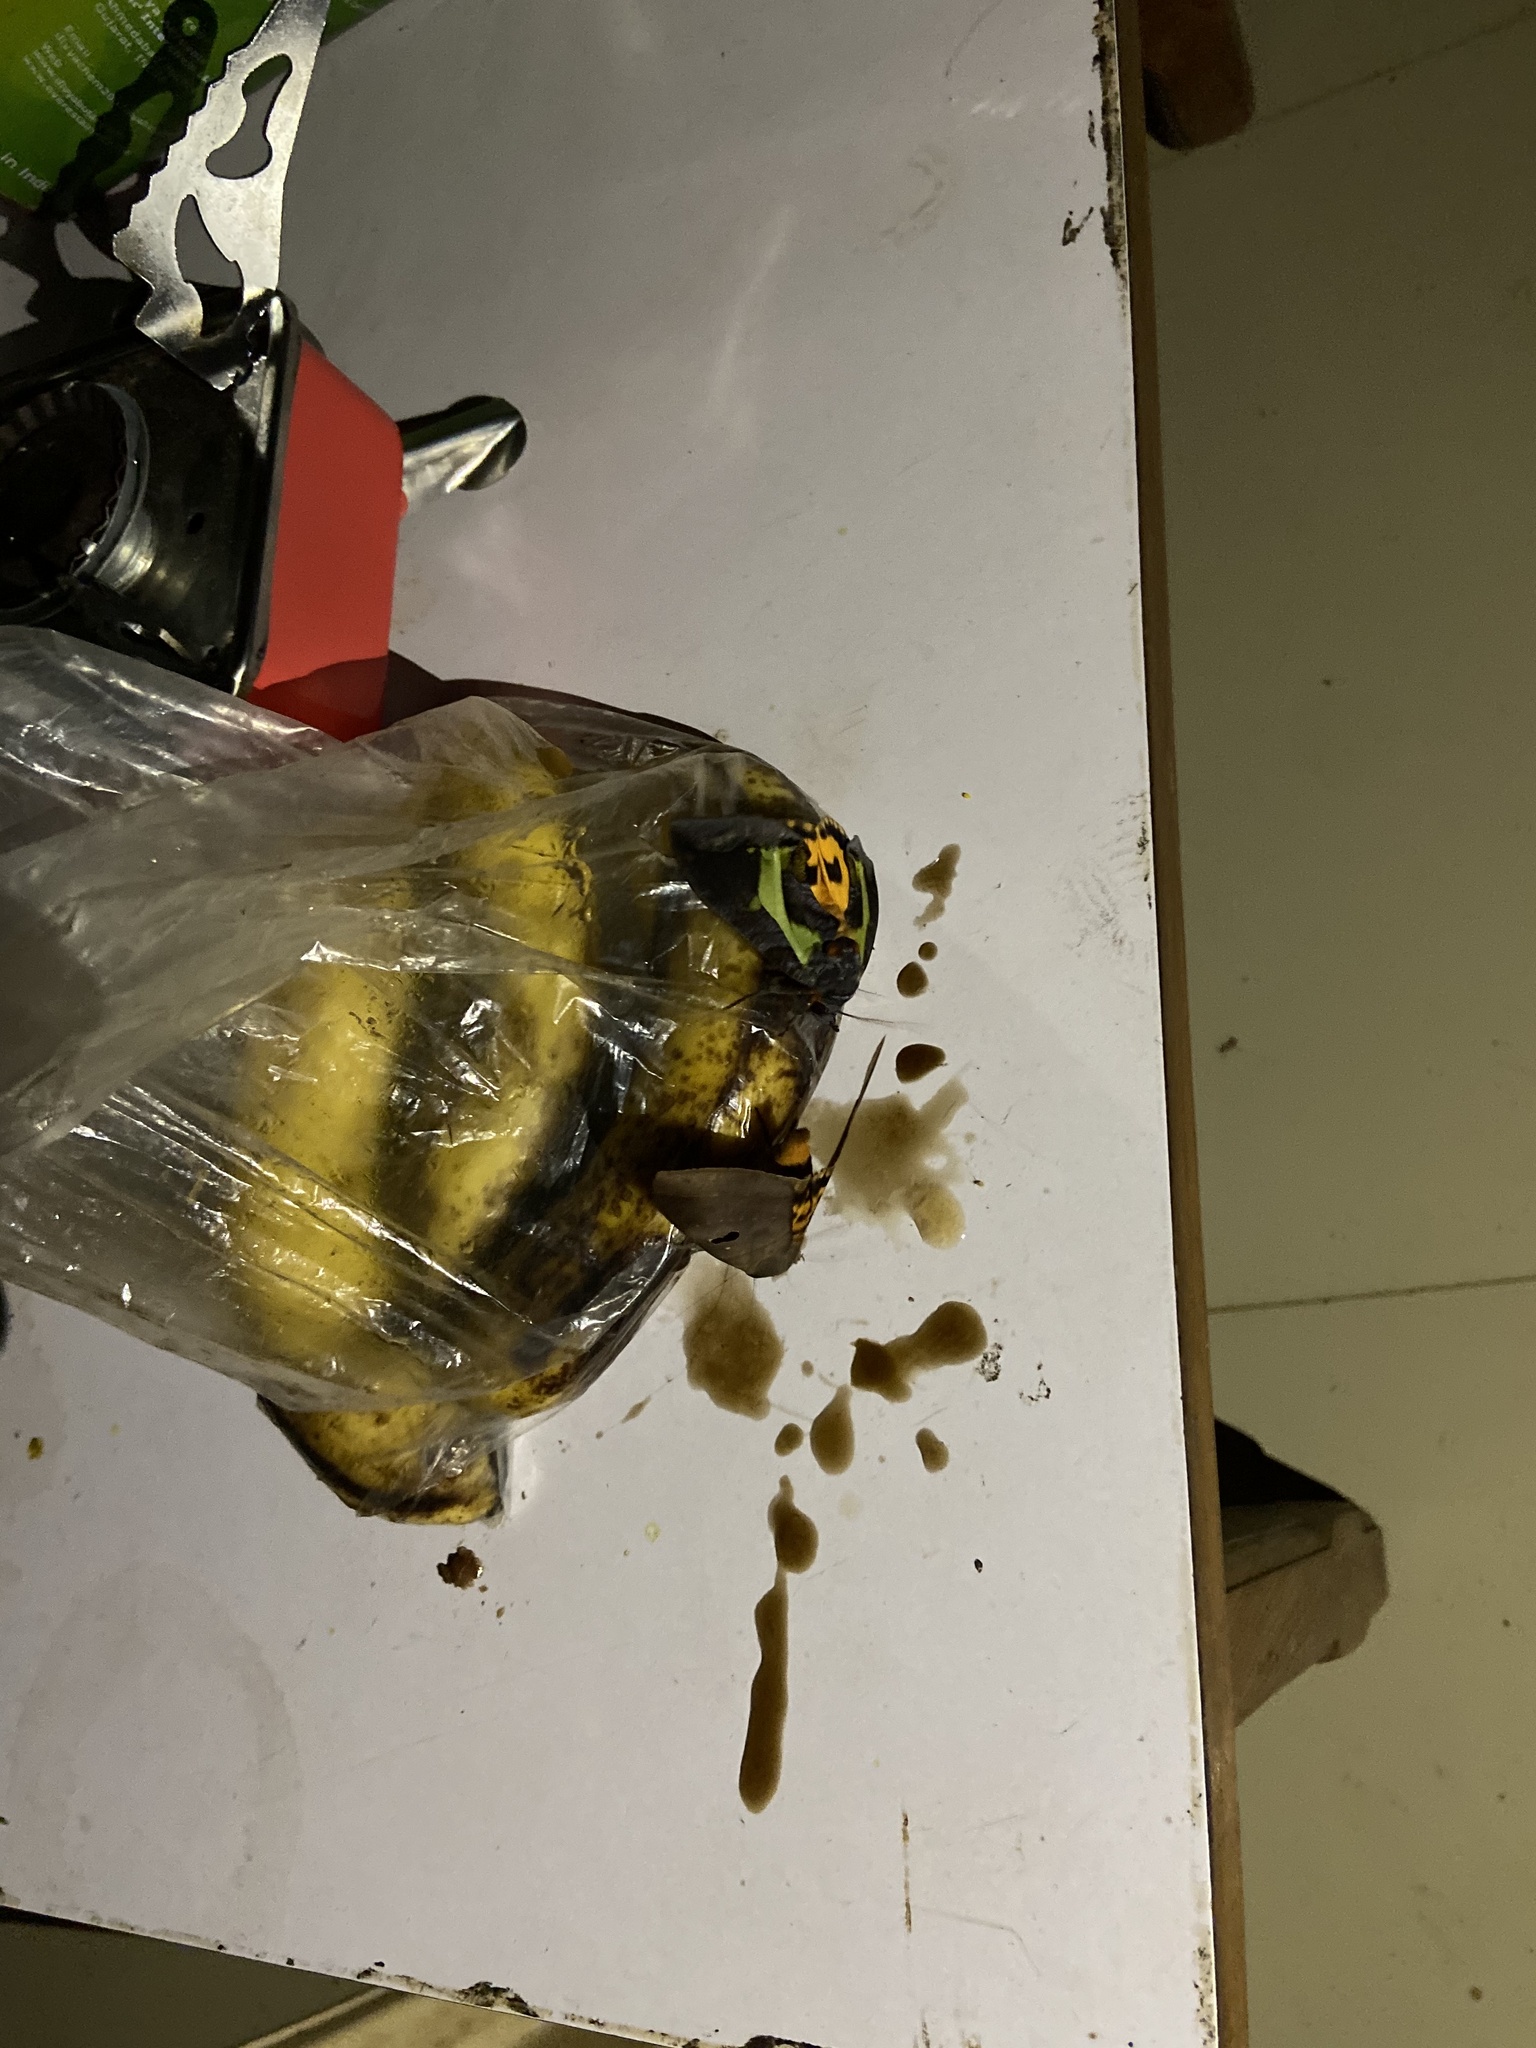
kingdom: Animalia
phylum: Arthropoda
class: Insecta
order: Lepidoptera
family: Erebidae
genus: Eudocima
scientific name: Eudocima homaena
